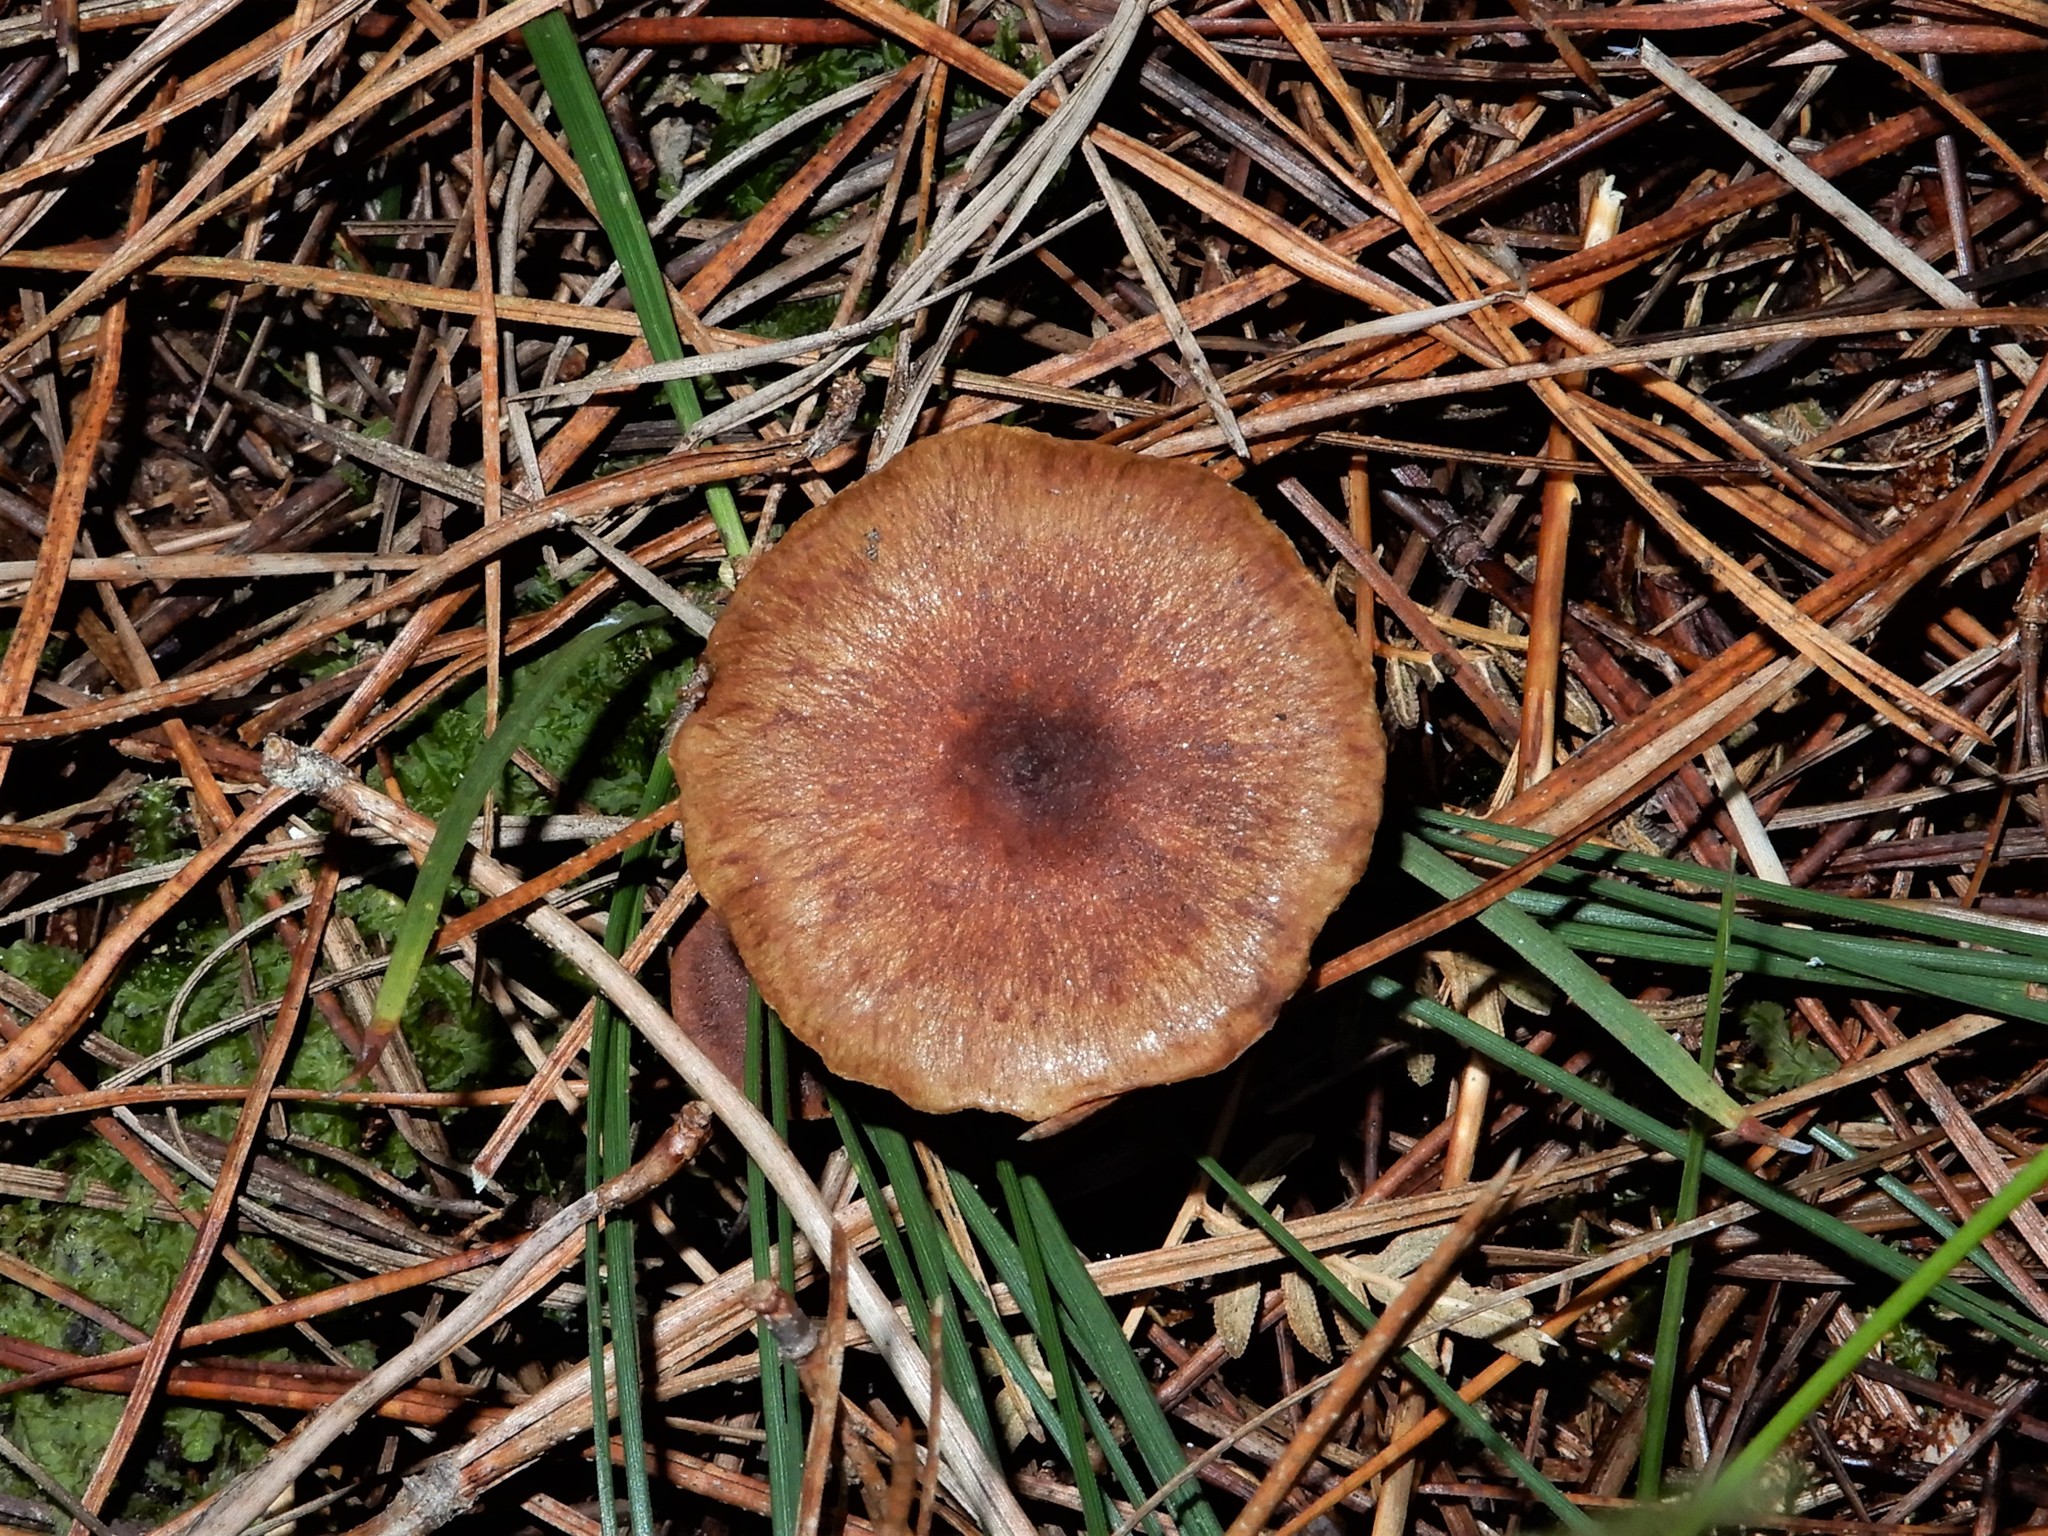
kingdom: Fungi
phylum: Basidiomycota
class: Agaricomycetes
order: Agaricales
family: Strophariaceae
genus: Pholiota
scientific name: Pholiota multicingulata
